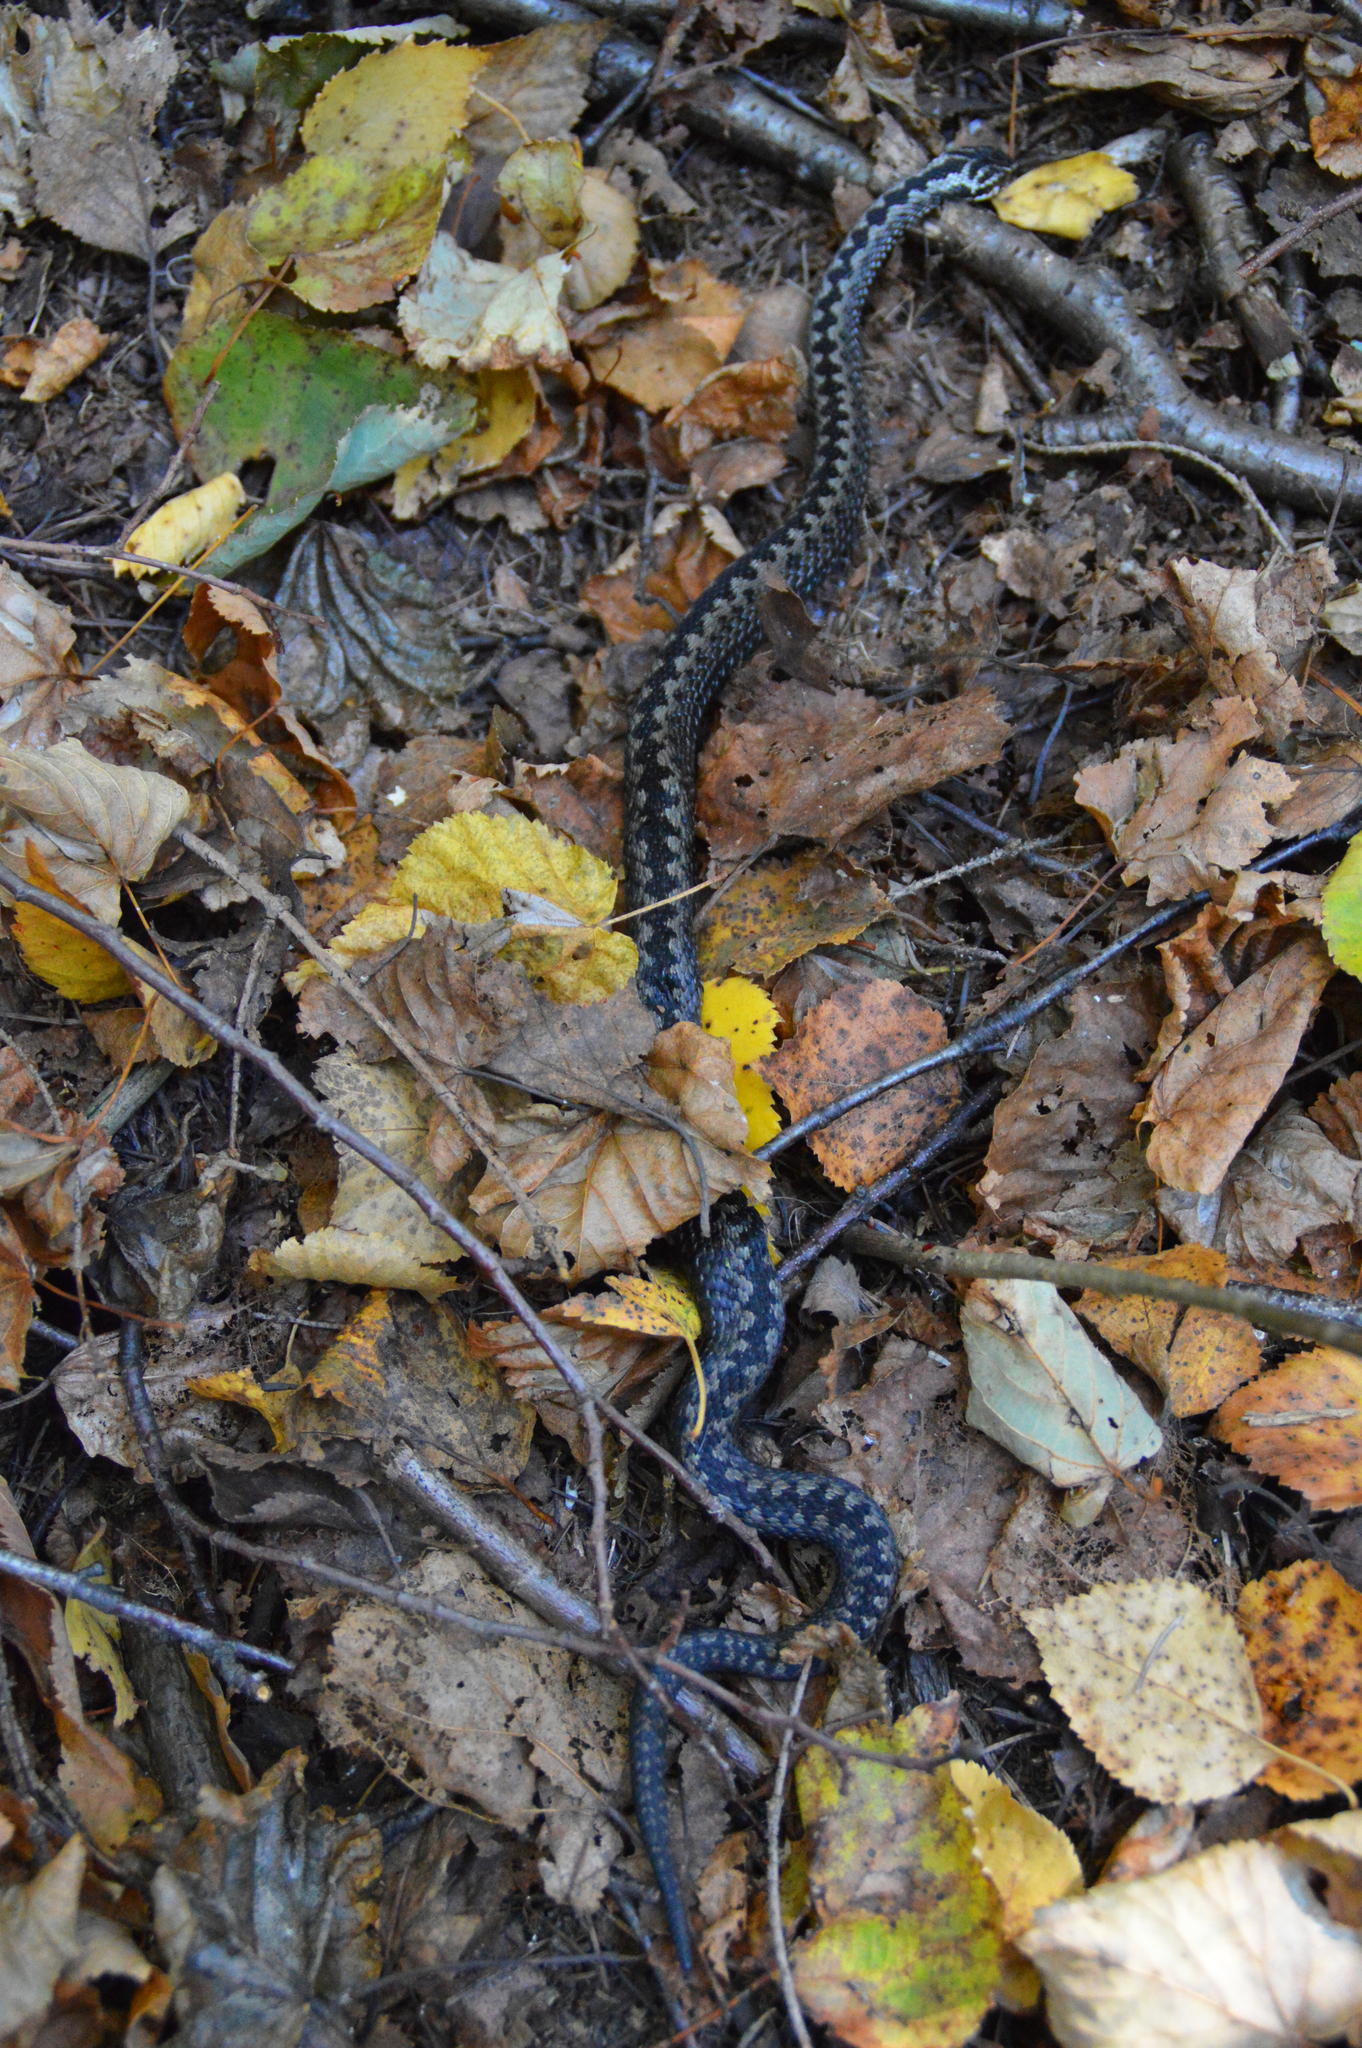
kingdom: Animalia
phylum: Chordata
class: Squamata
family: Viperidae
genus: Vipera
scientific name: Vipera berus
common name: Adder
